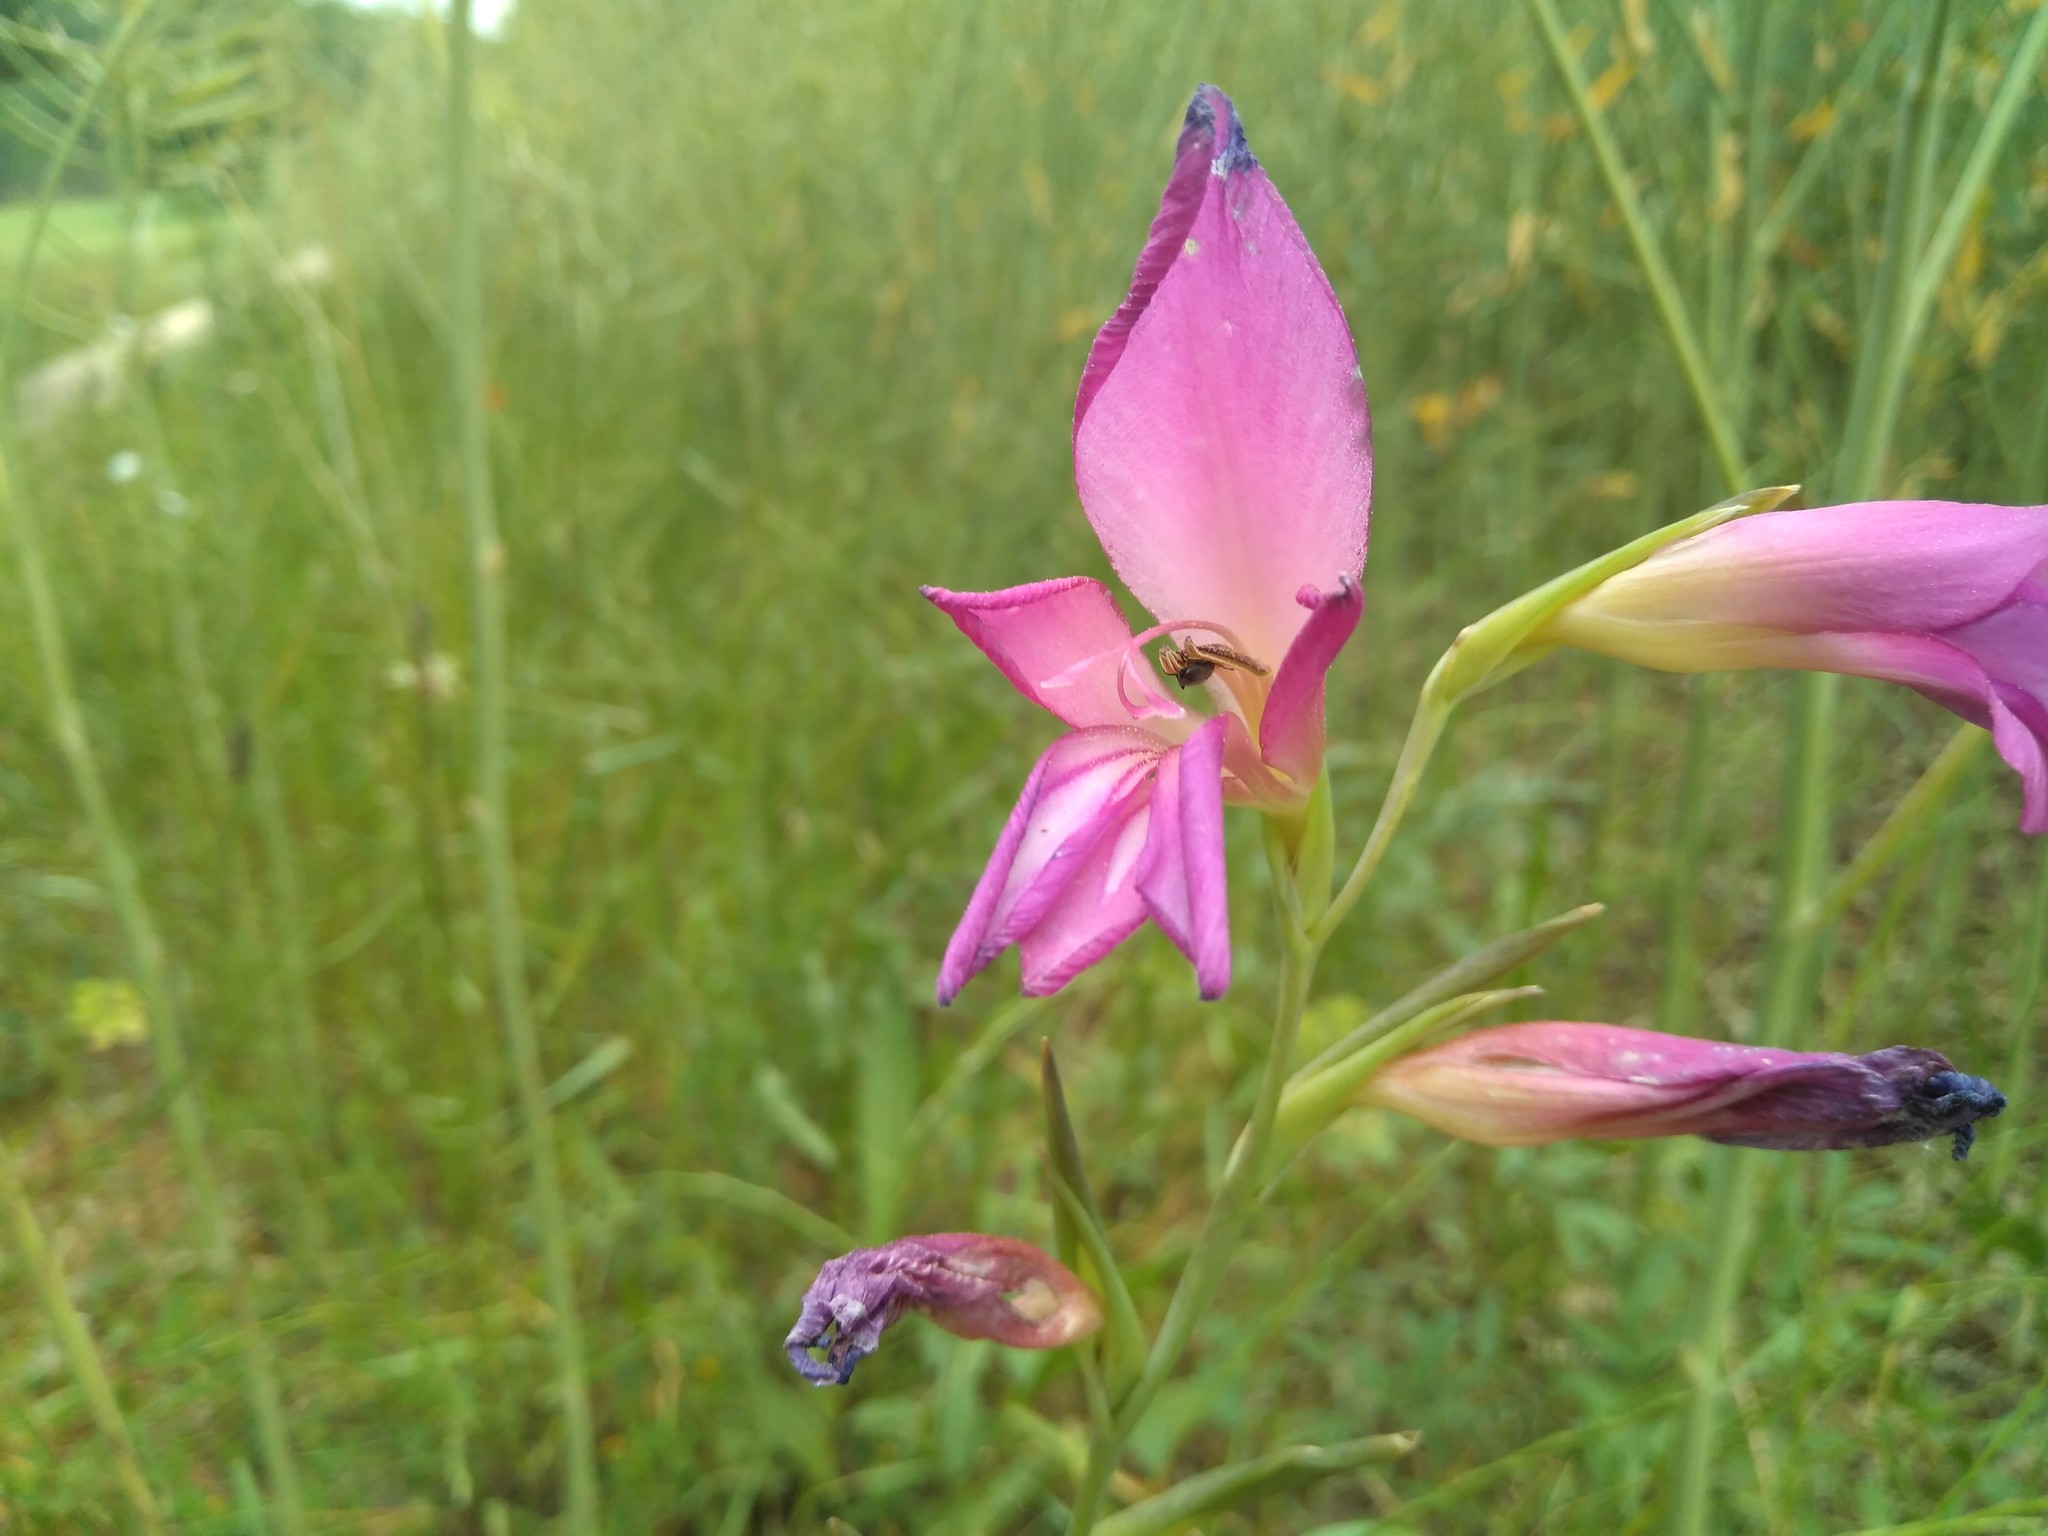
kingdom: Plantae
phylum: Tracheophyta
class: Liliopsida
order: Asparagales
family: Iridaceae
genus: Gladiolus
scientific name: Gladiolus italicus
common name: Field gladiolus
